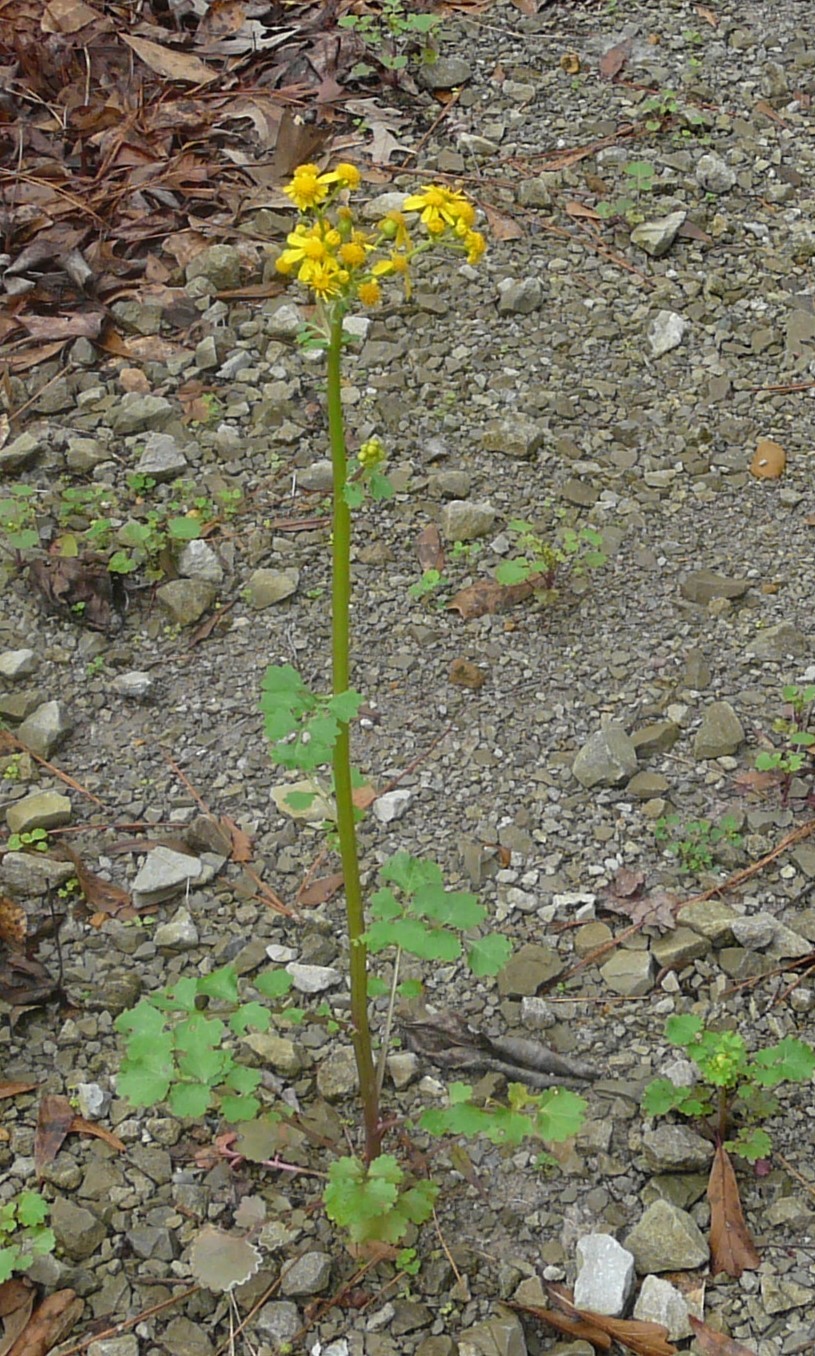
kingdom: Plantae
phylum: Tracheophyta
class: Magnoliopsida
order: Asterales
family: Asteraceae
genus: Packera
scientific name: Packera glabella
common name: Butterweed
